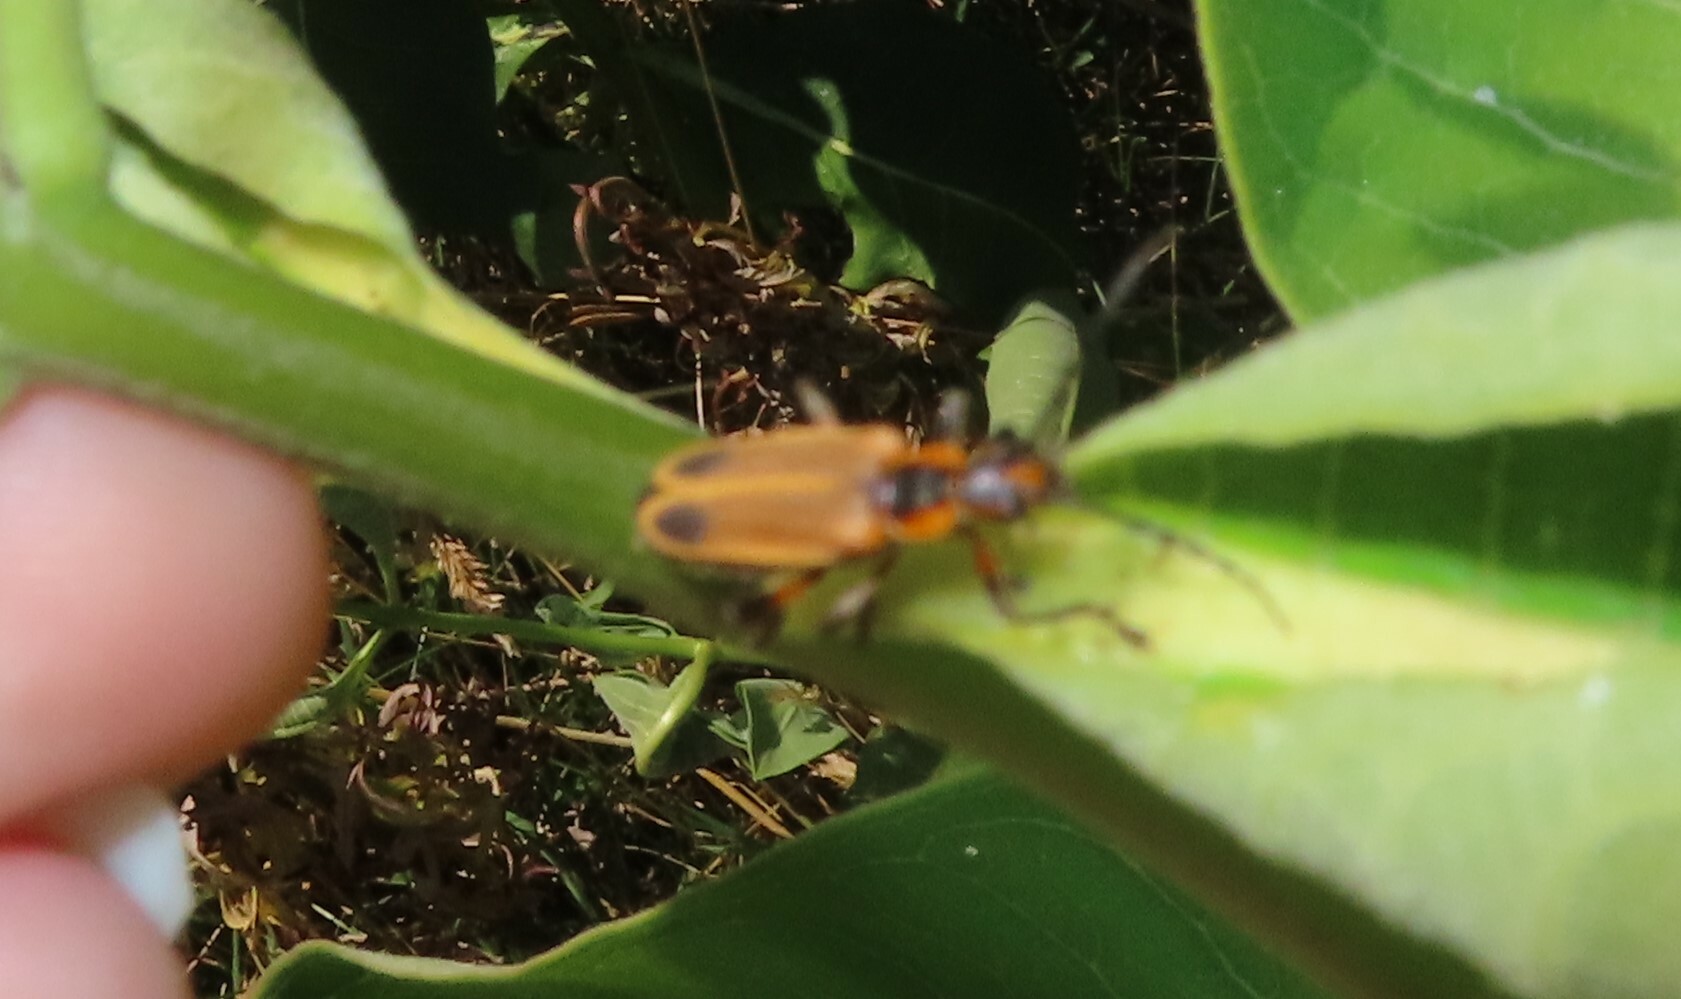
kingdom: Animalia
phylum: Arthropoda
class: Insecta
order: Coleoptera
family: Cantharidae
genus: Chauliognathus
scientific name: Chauliognathus marginatus
